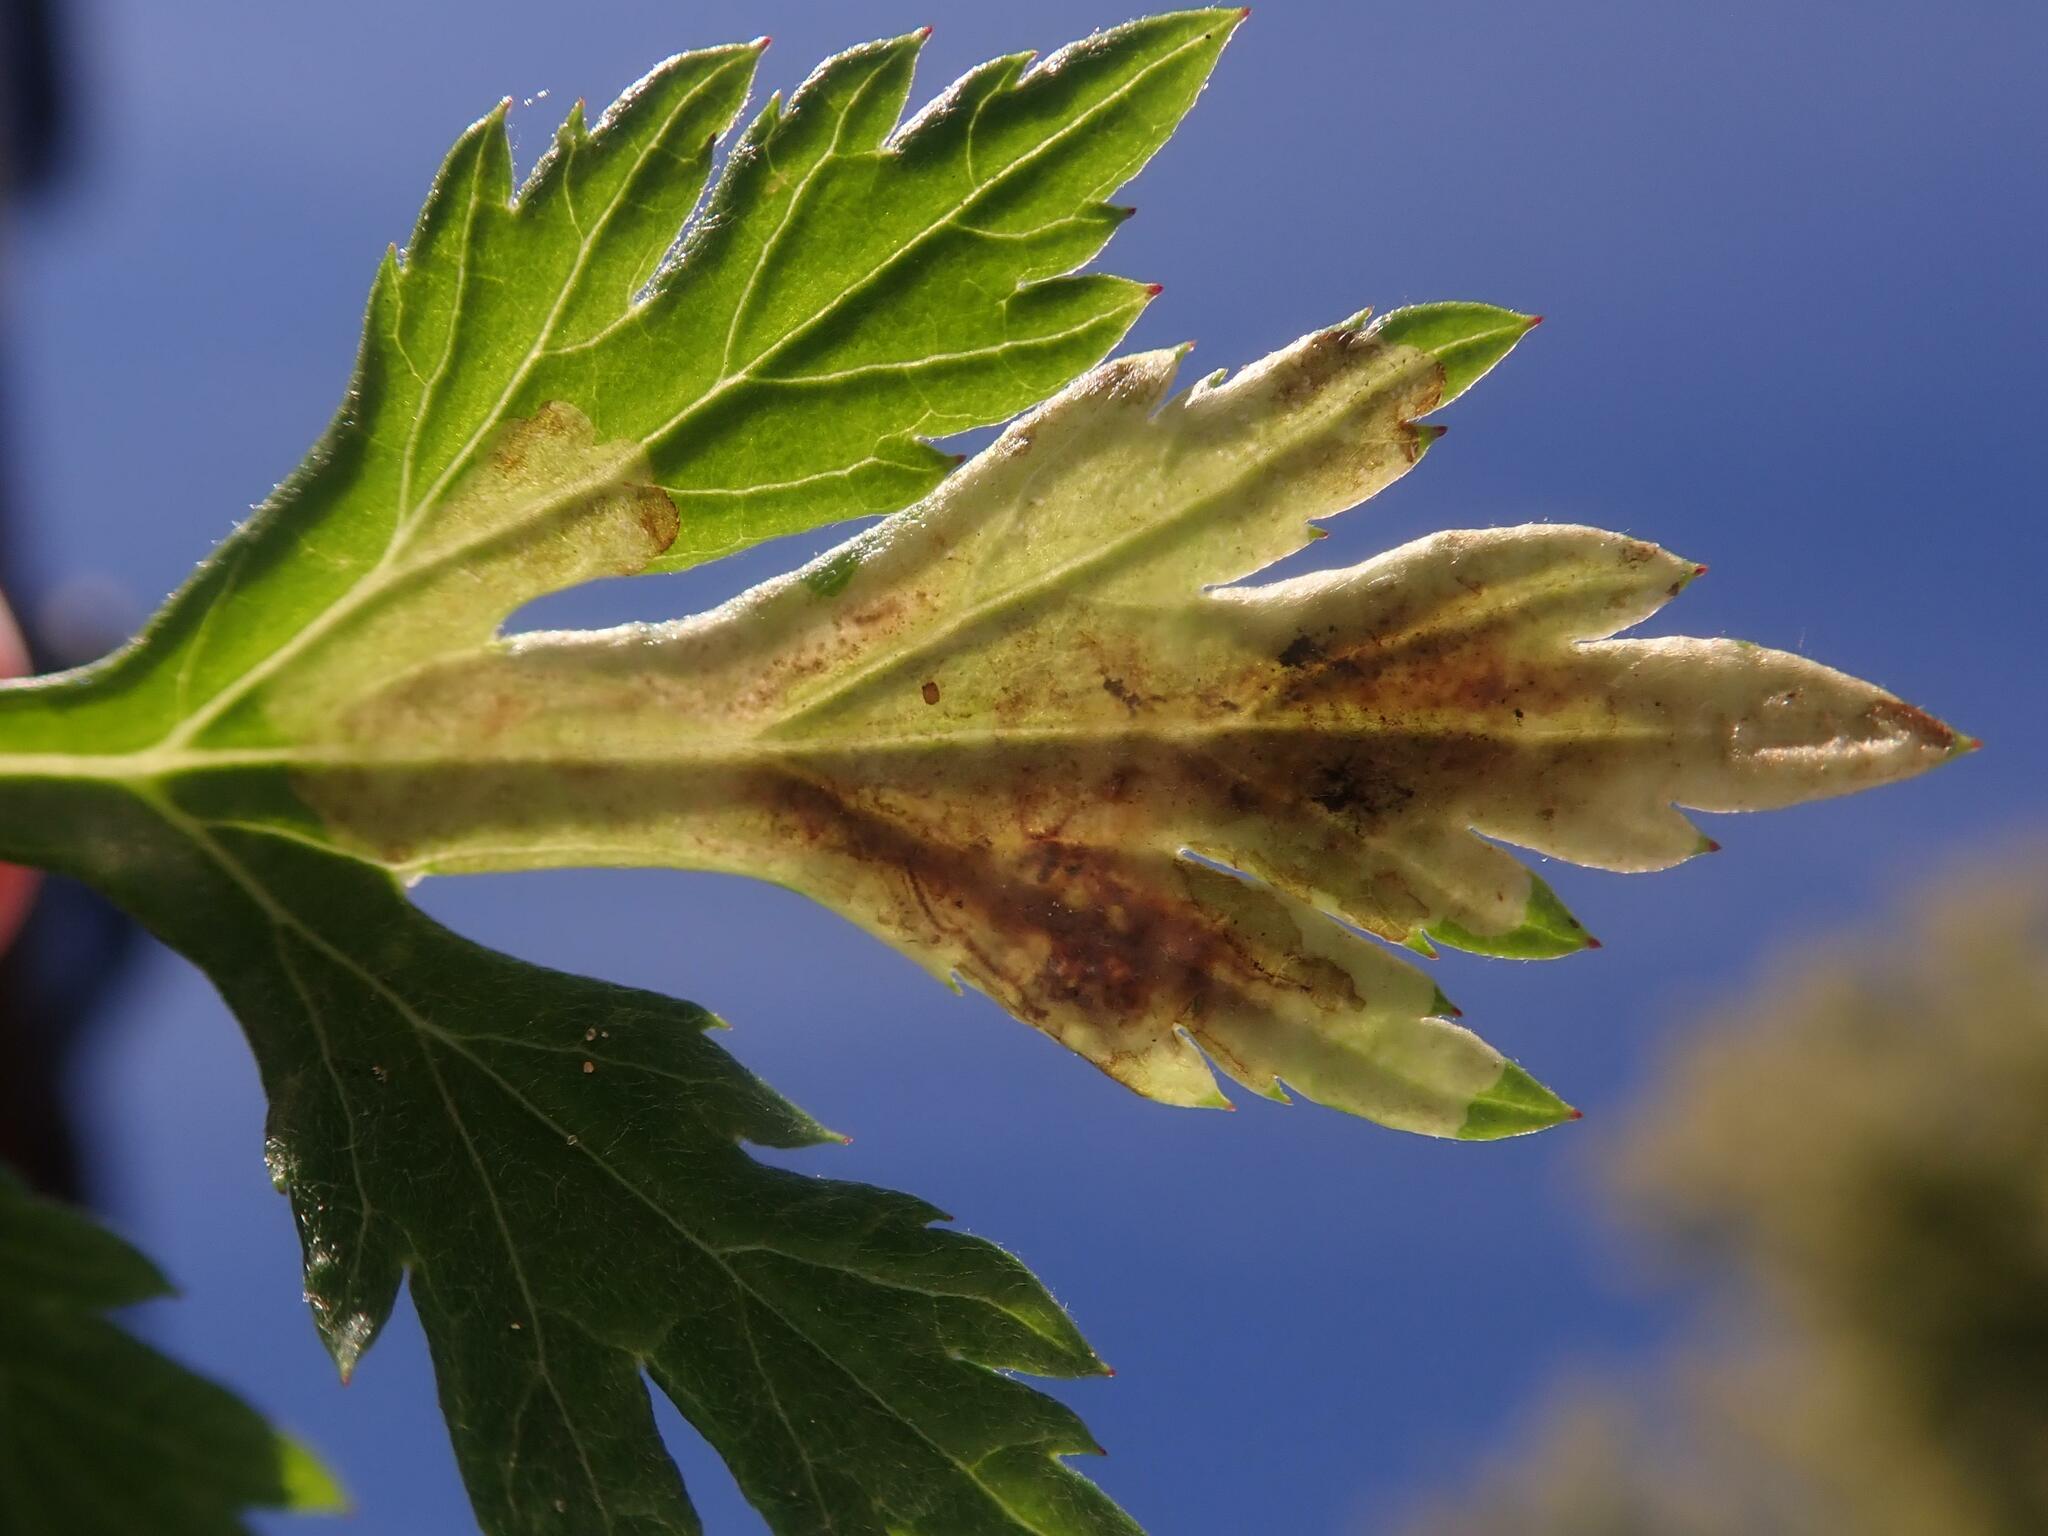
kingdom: Animalia
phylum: Arthropoda
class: Insecta
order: Diptera
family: Agromyzidae
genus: Calycomyza
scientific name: Calycomyza artemisiae
